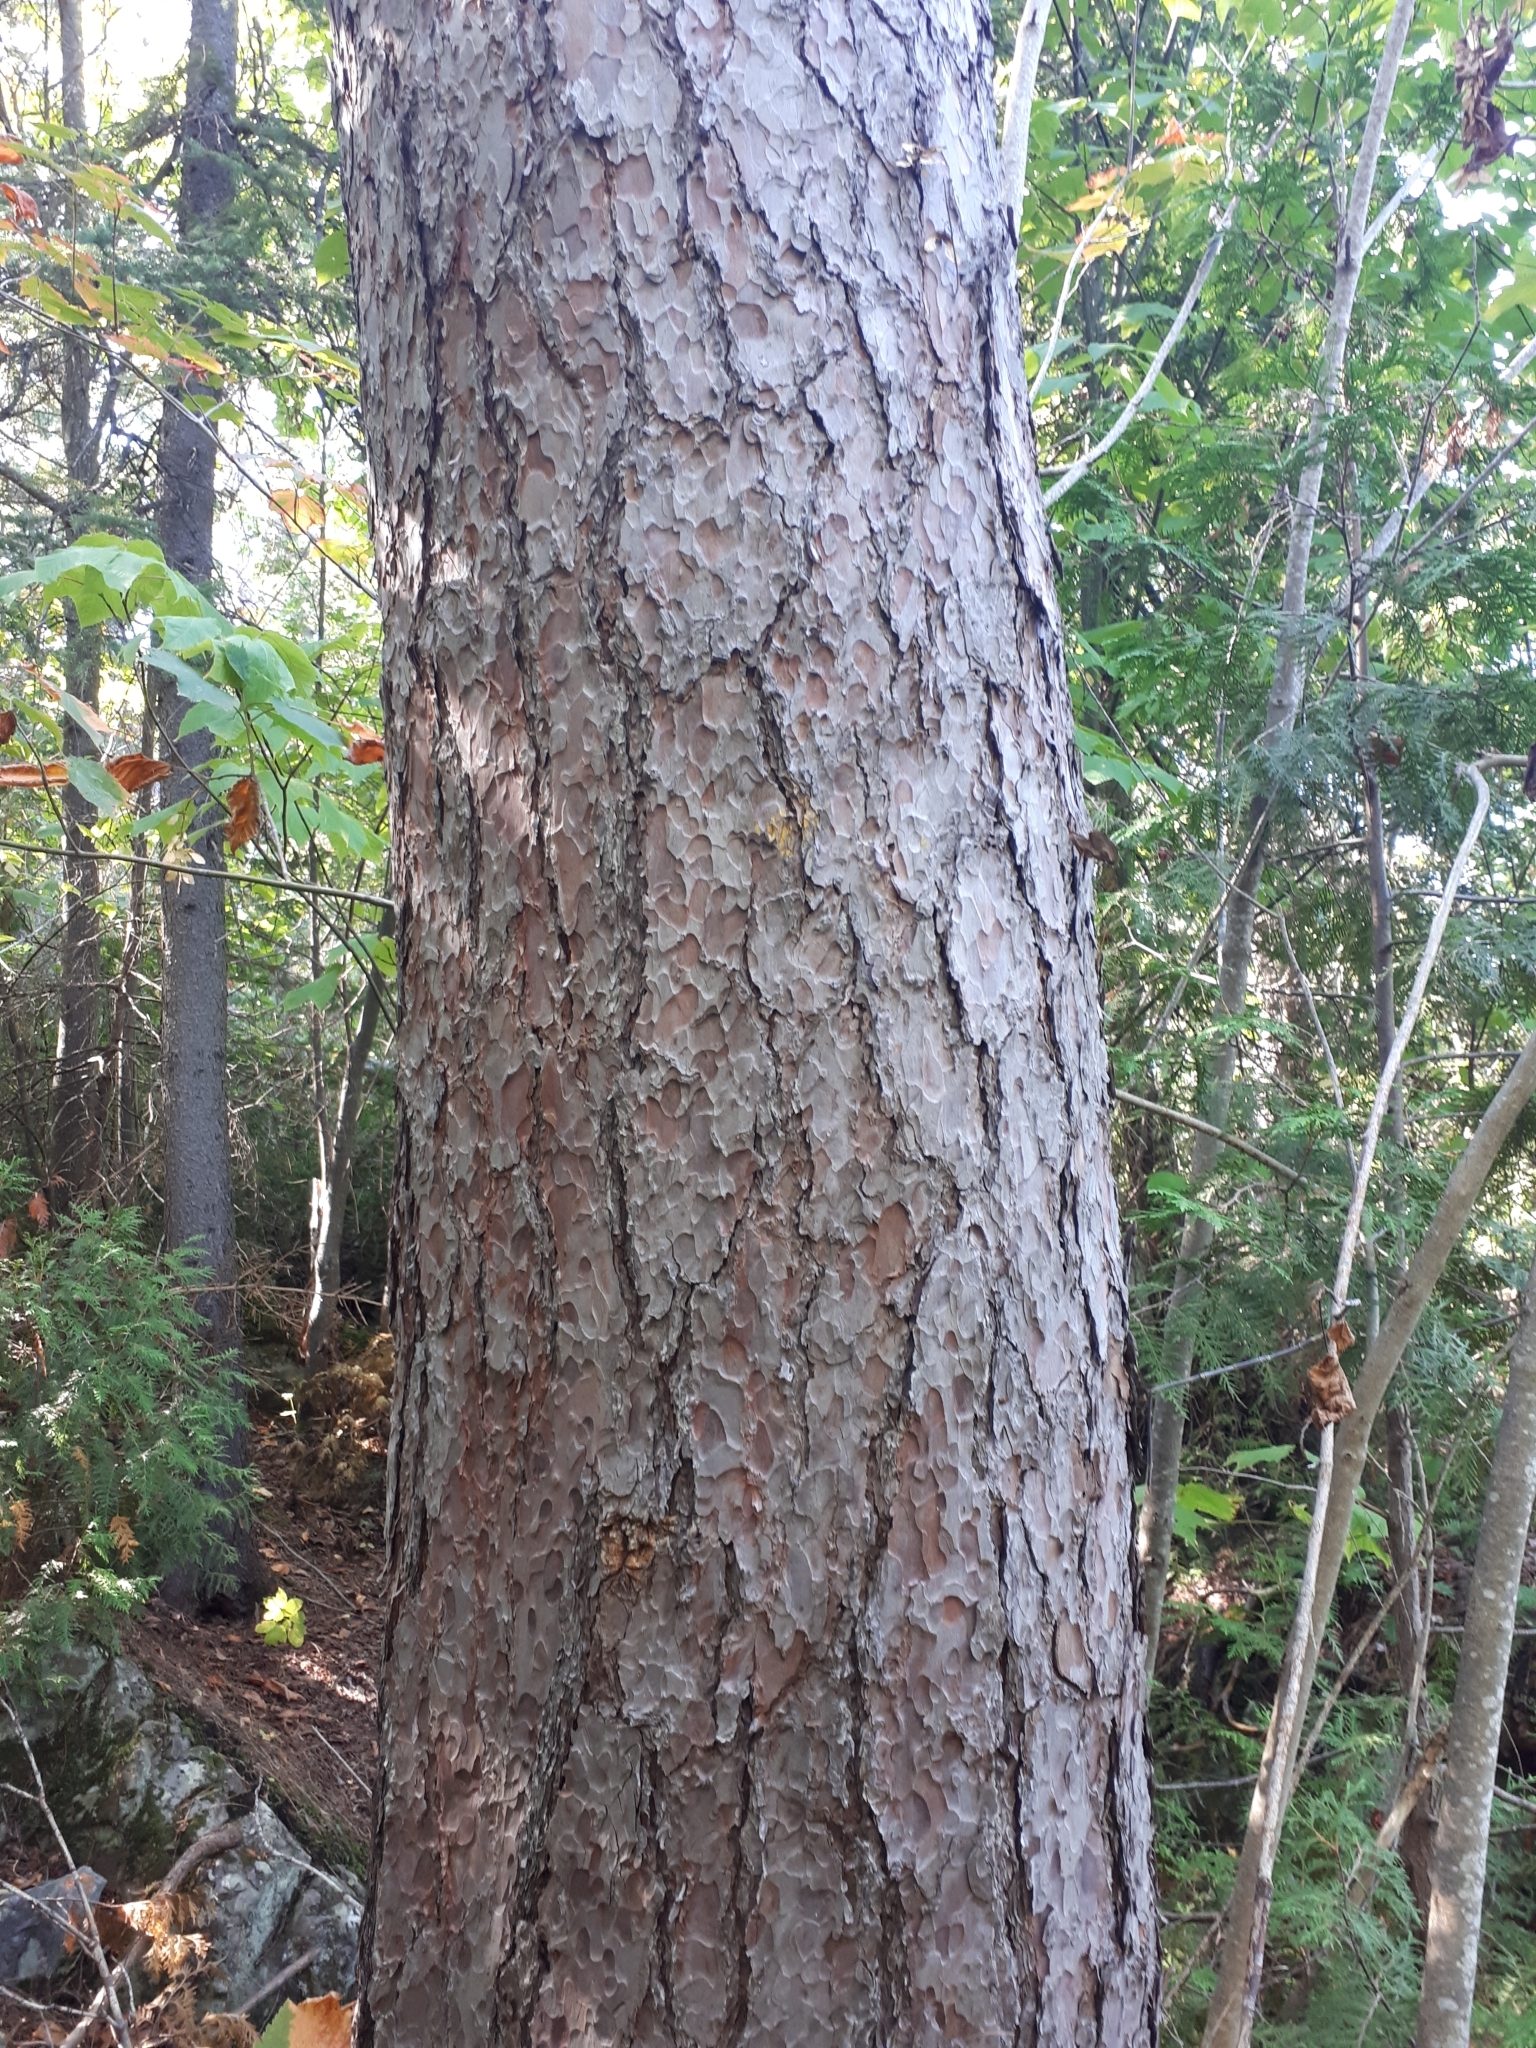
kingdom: Plantae
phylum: Tracheophyta
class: Pinopsida
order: Pinales
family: Pinaceae
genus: Pinus
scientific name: Pinus resinosa
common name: Norway pine
